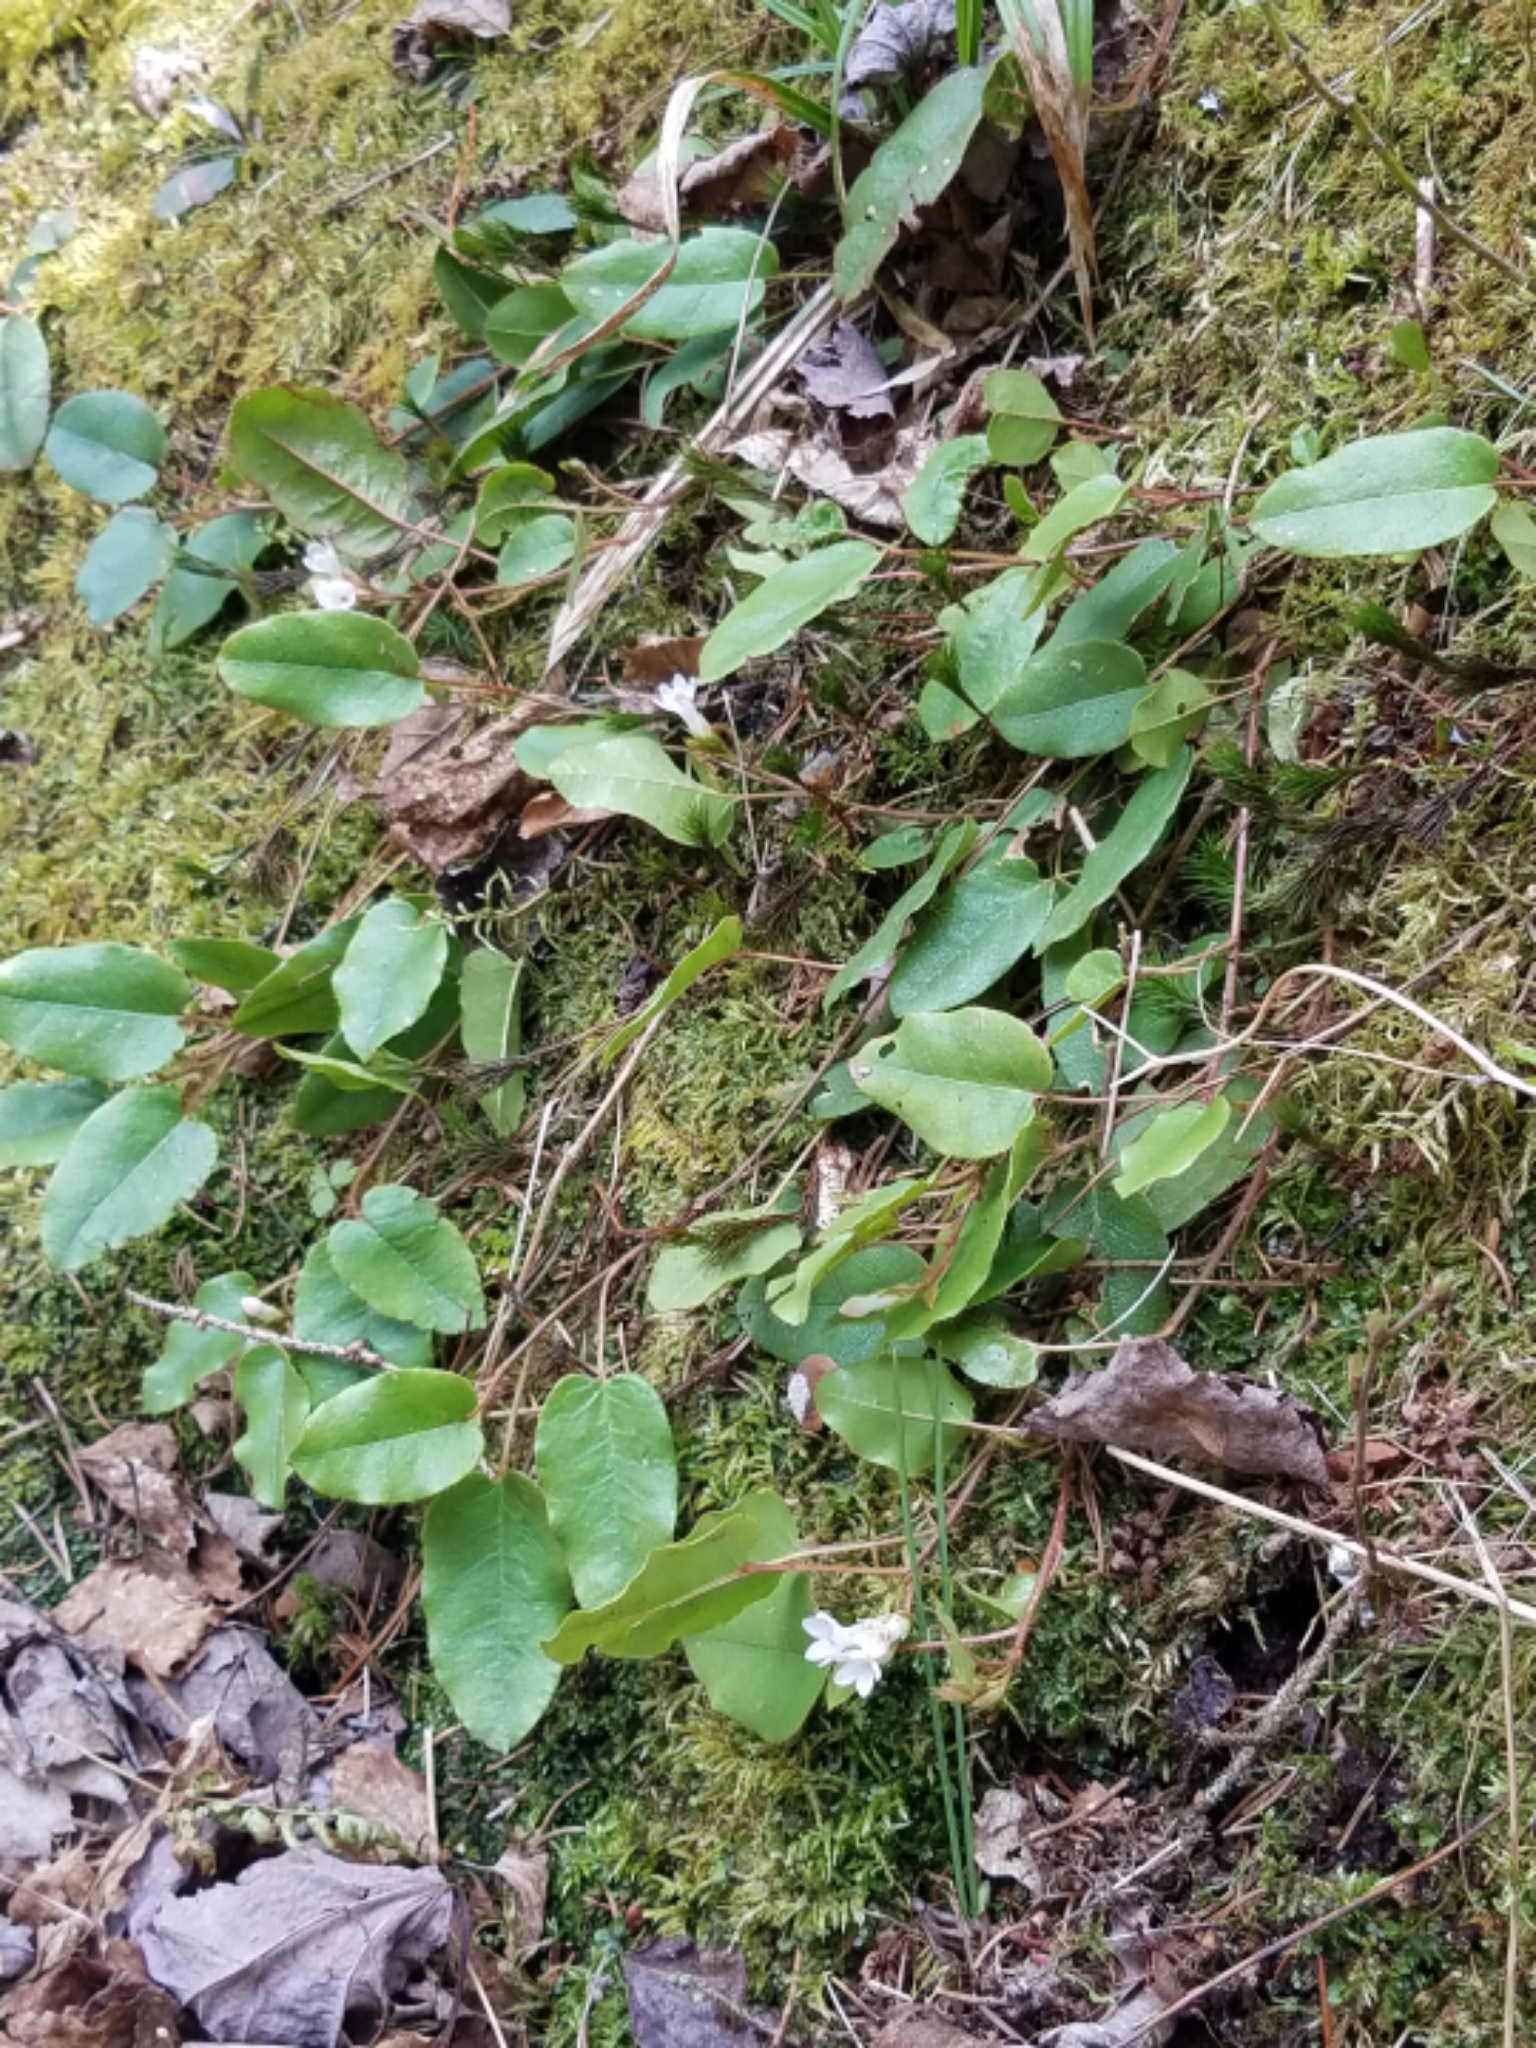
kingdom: Plantae
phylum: Tracheophyta
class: Magnoliopsida
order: Ericales
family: Ericaceae
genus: Epigaea
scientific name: Epigaea repens
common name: Gravelroot
